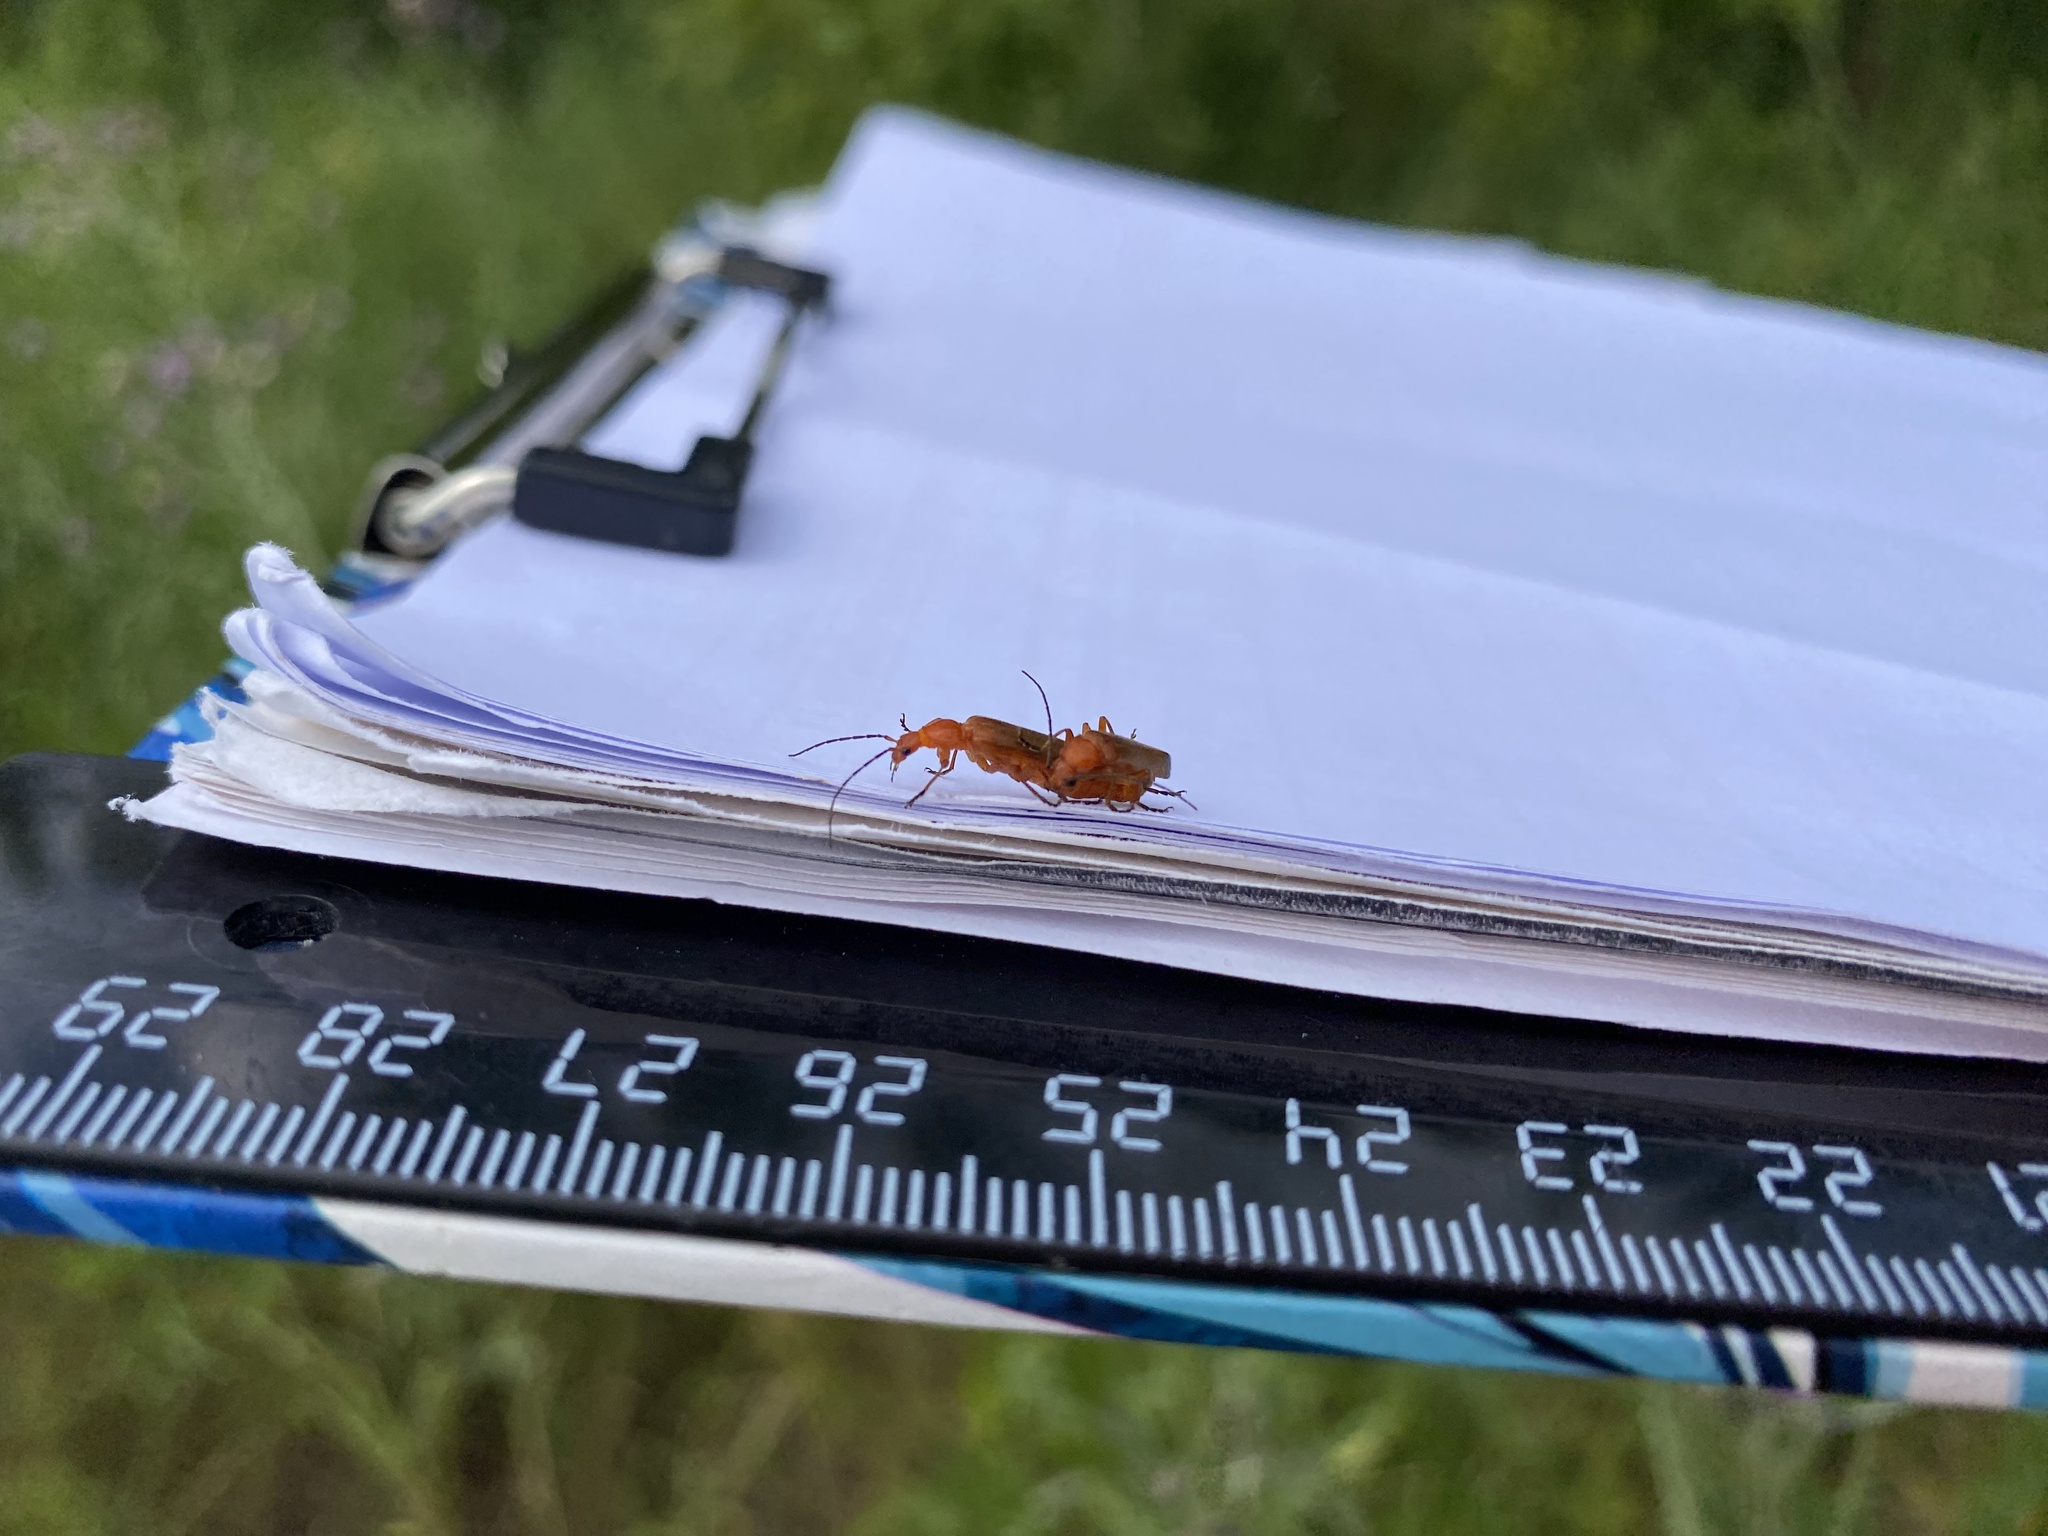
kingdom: Animalia
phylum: Arthropoda
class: Insecta
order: Coleoptera
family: Cantharidae
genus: Rhagonycha
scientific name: Rhagonycha fulva
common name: Common red soldier beetle
